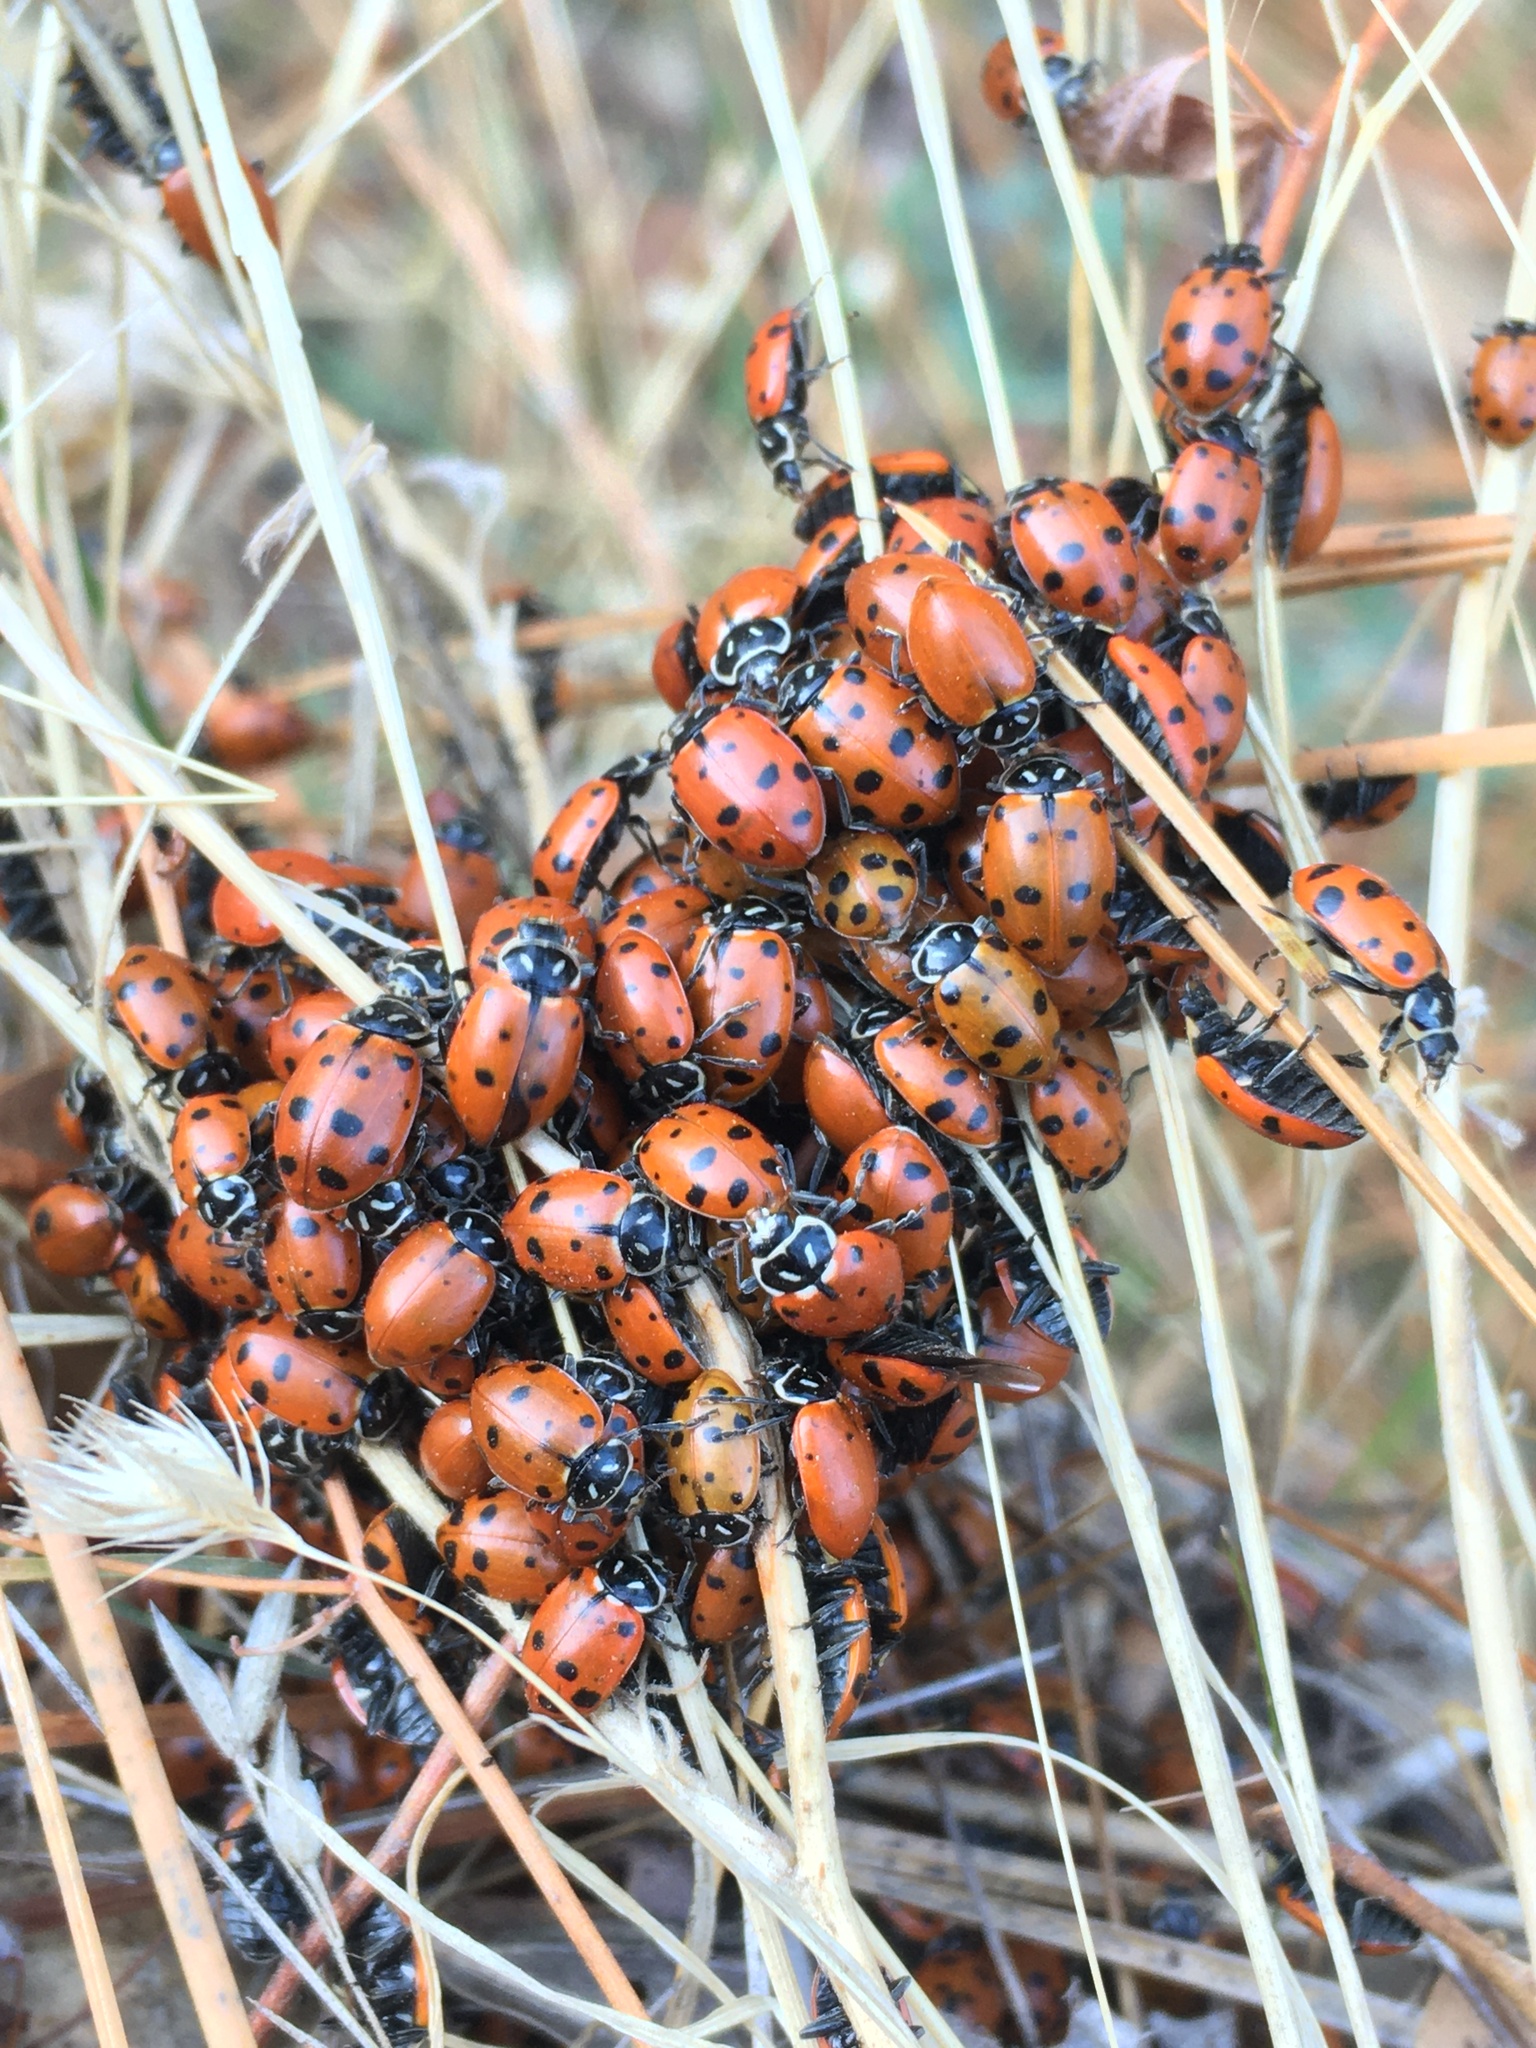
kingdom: Animalia
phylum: Arthropoda
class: Insecta
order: Coleoptera
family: Coccinellidae
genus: Hippodamia
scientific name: Hippodamia convergens
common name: Convergent lady beetle
